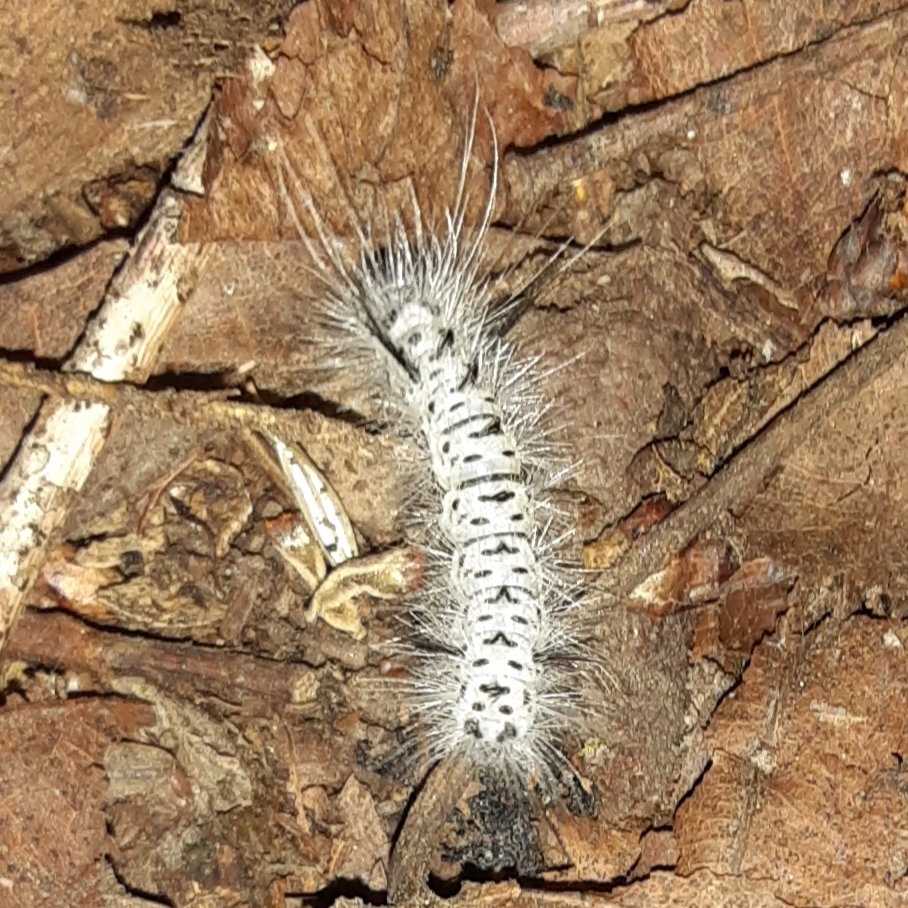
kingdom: Animalia
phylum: Arthropoda
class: Insecta
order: Lepidoptera
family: Erebidae
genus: Lophocampa
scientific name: Lophocampa caryae
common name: Hickory tussock moth
